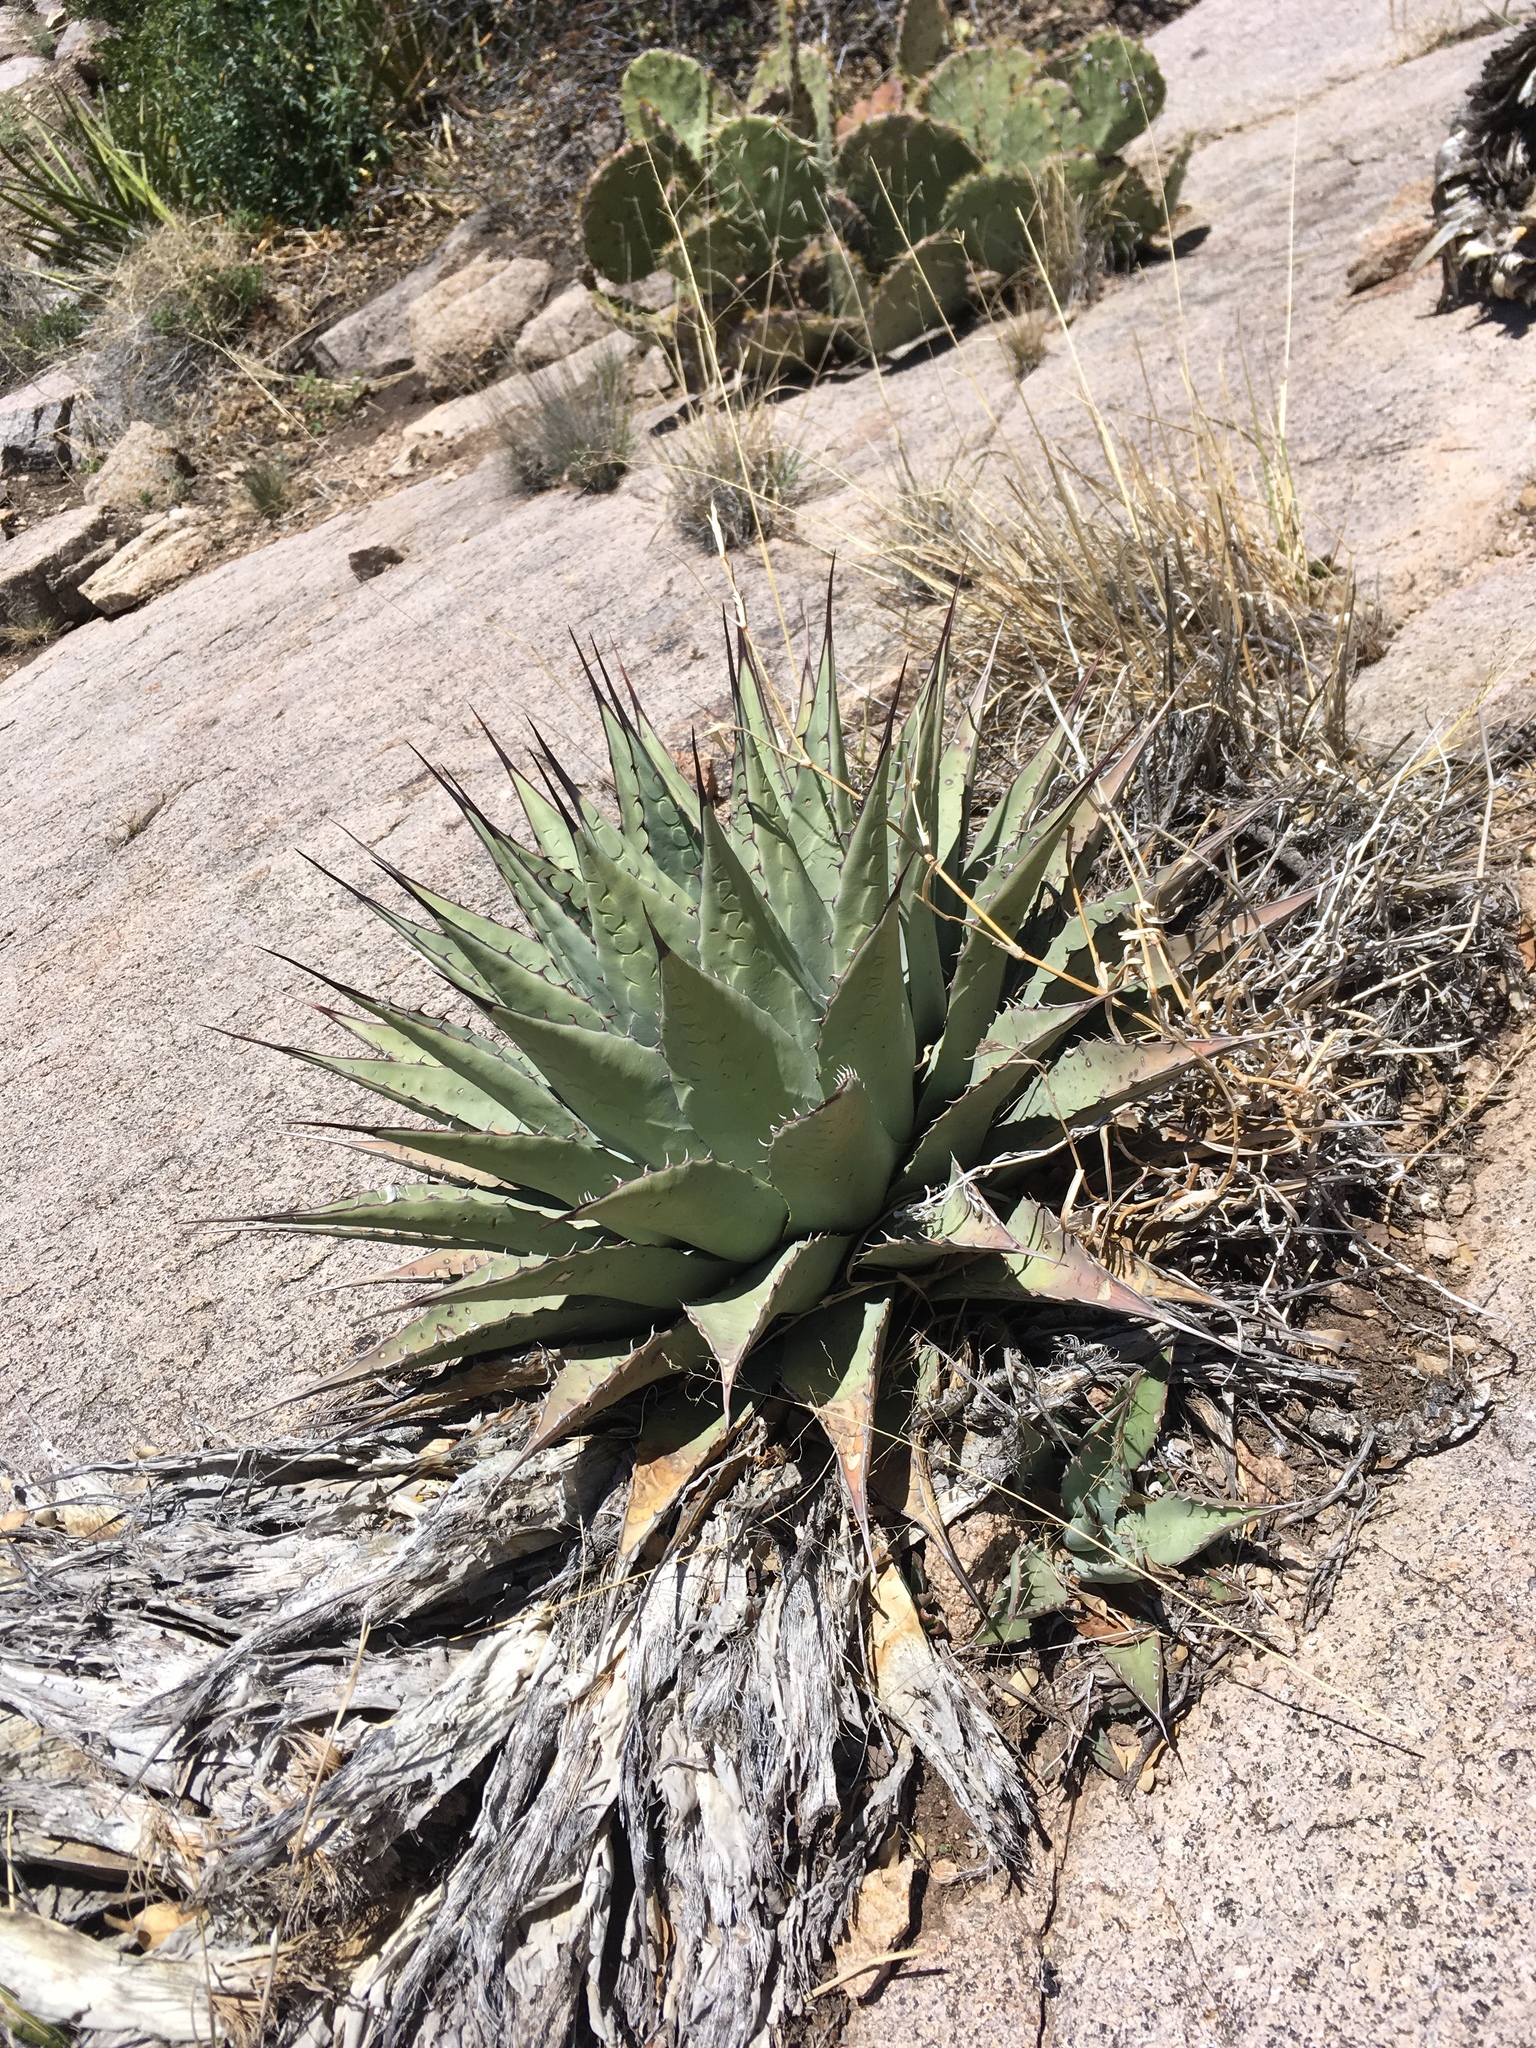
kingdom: Plantae
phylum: Tracheophyta
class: Liliopsida
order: Asparagales
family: Asparagaceae
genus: Agave
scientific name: Agave parryi
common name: Parry's agave
